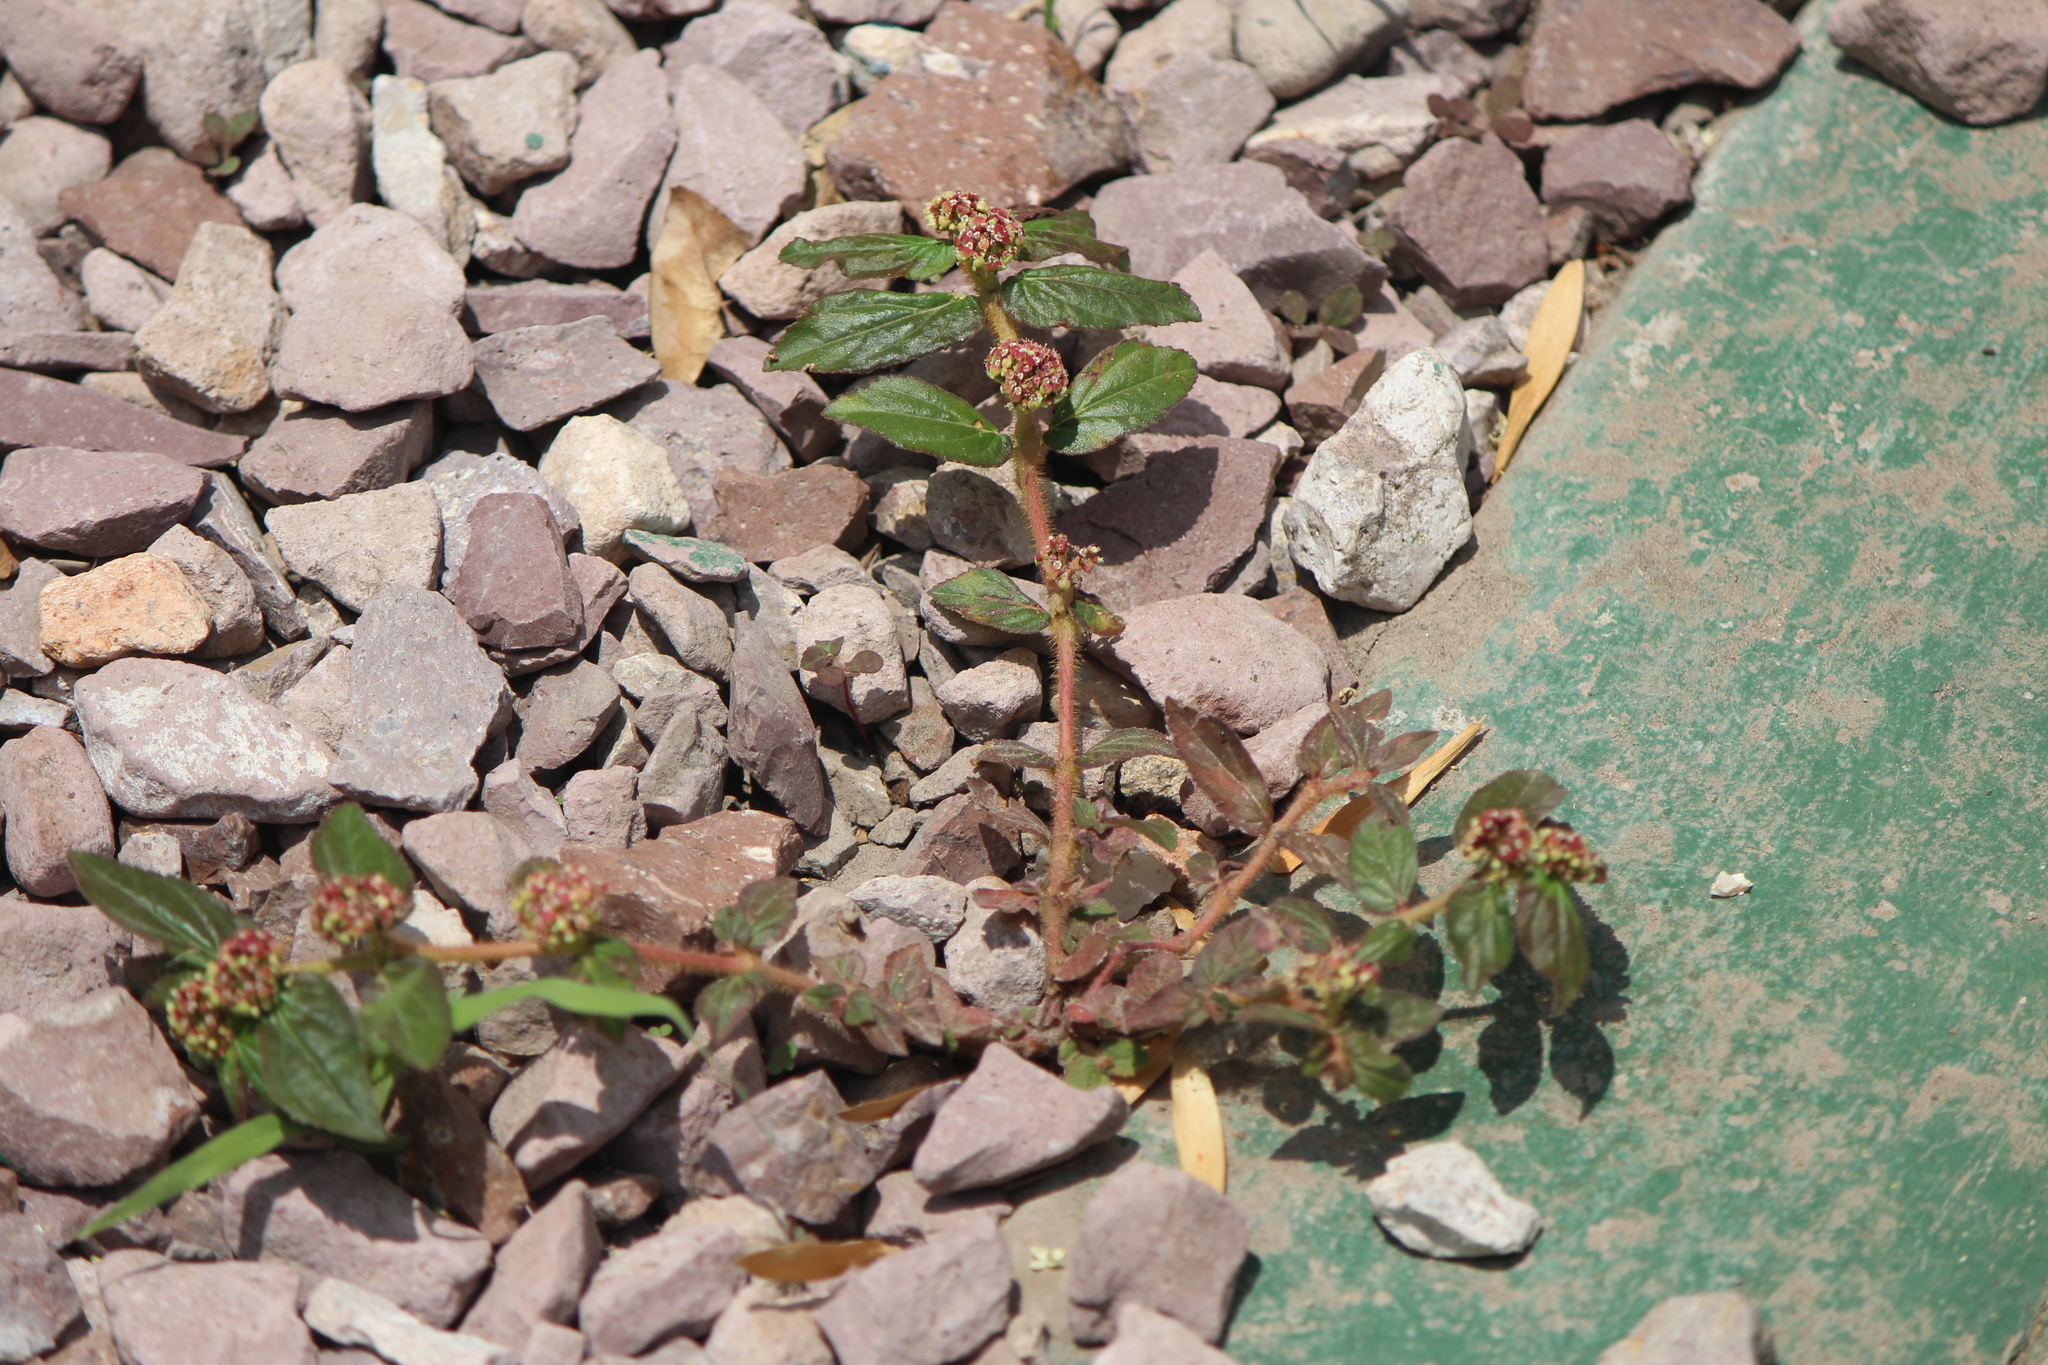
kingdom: Plantae
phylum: Tracheophyta
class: Magnoliopsida
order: Malpighiales
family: Euphorbiaceae
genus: Euphorbia
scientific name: Euphorbia hirta
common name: Pillpod sandmat
